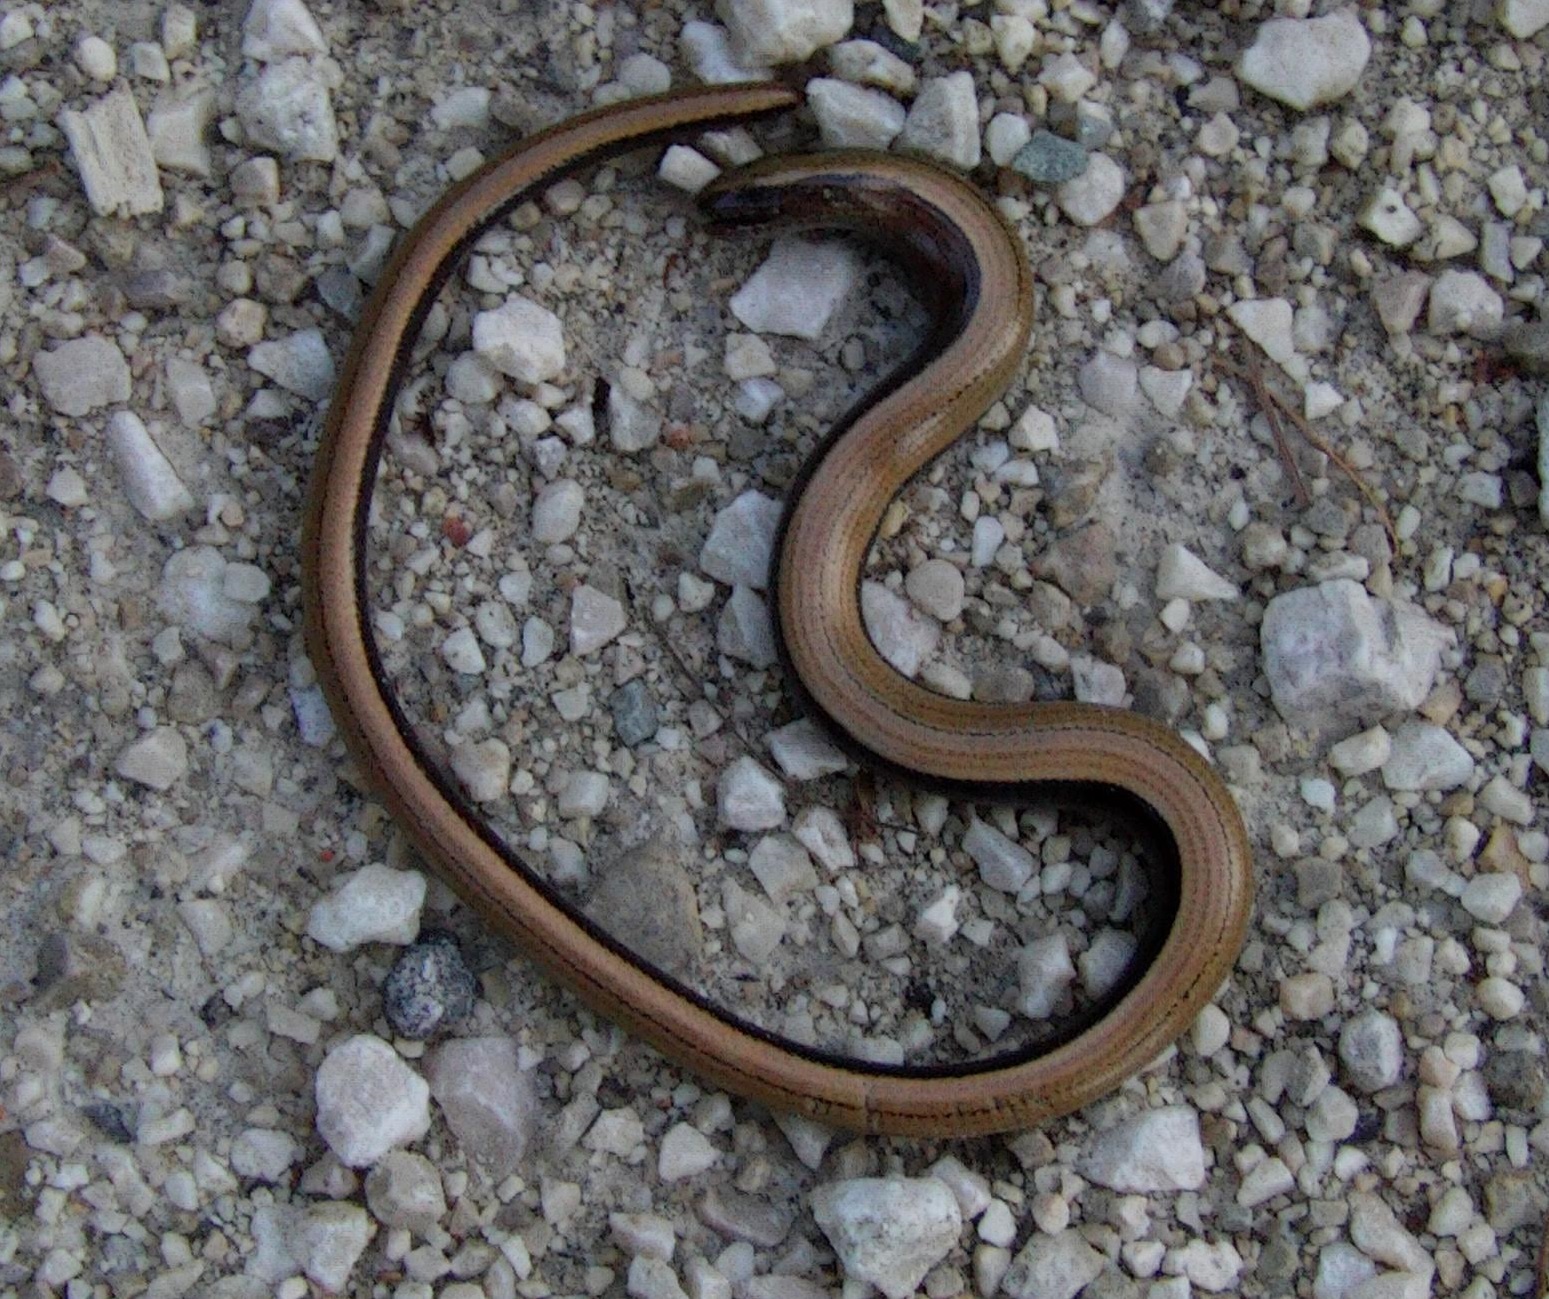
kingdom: Animalia
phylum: Chordata
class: Squamata
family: Anguidae
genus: Anguis
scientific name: Anguis fragilis
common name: Slow worm
